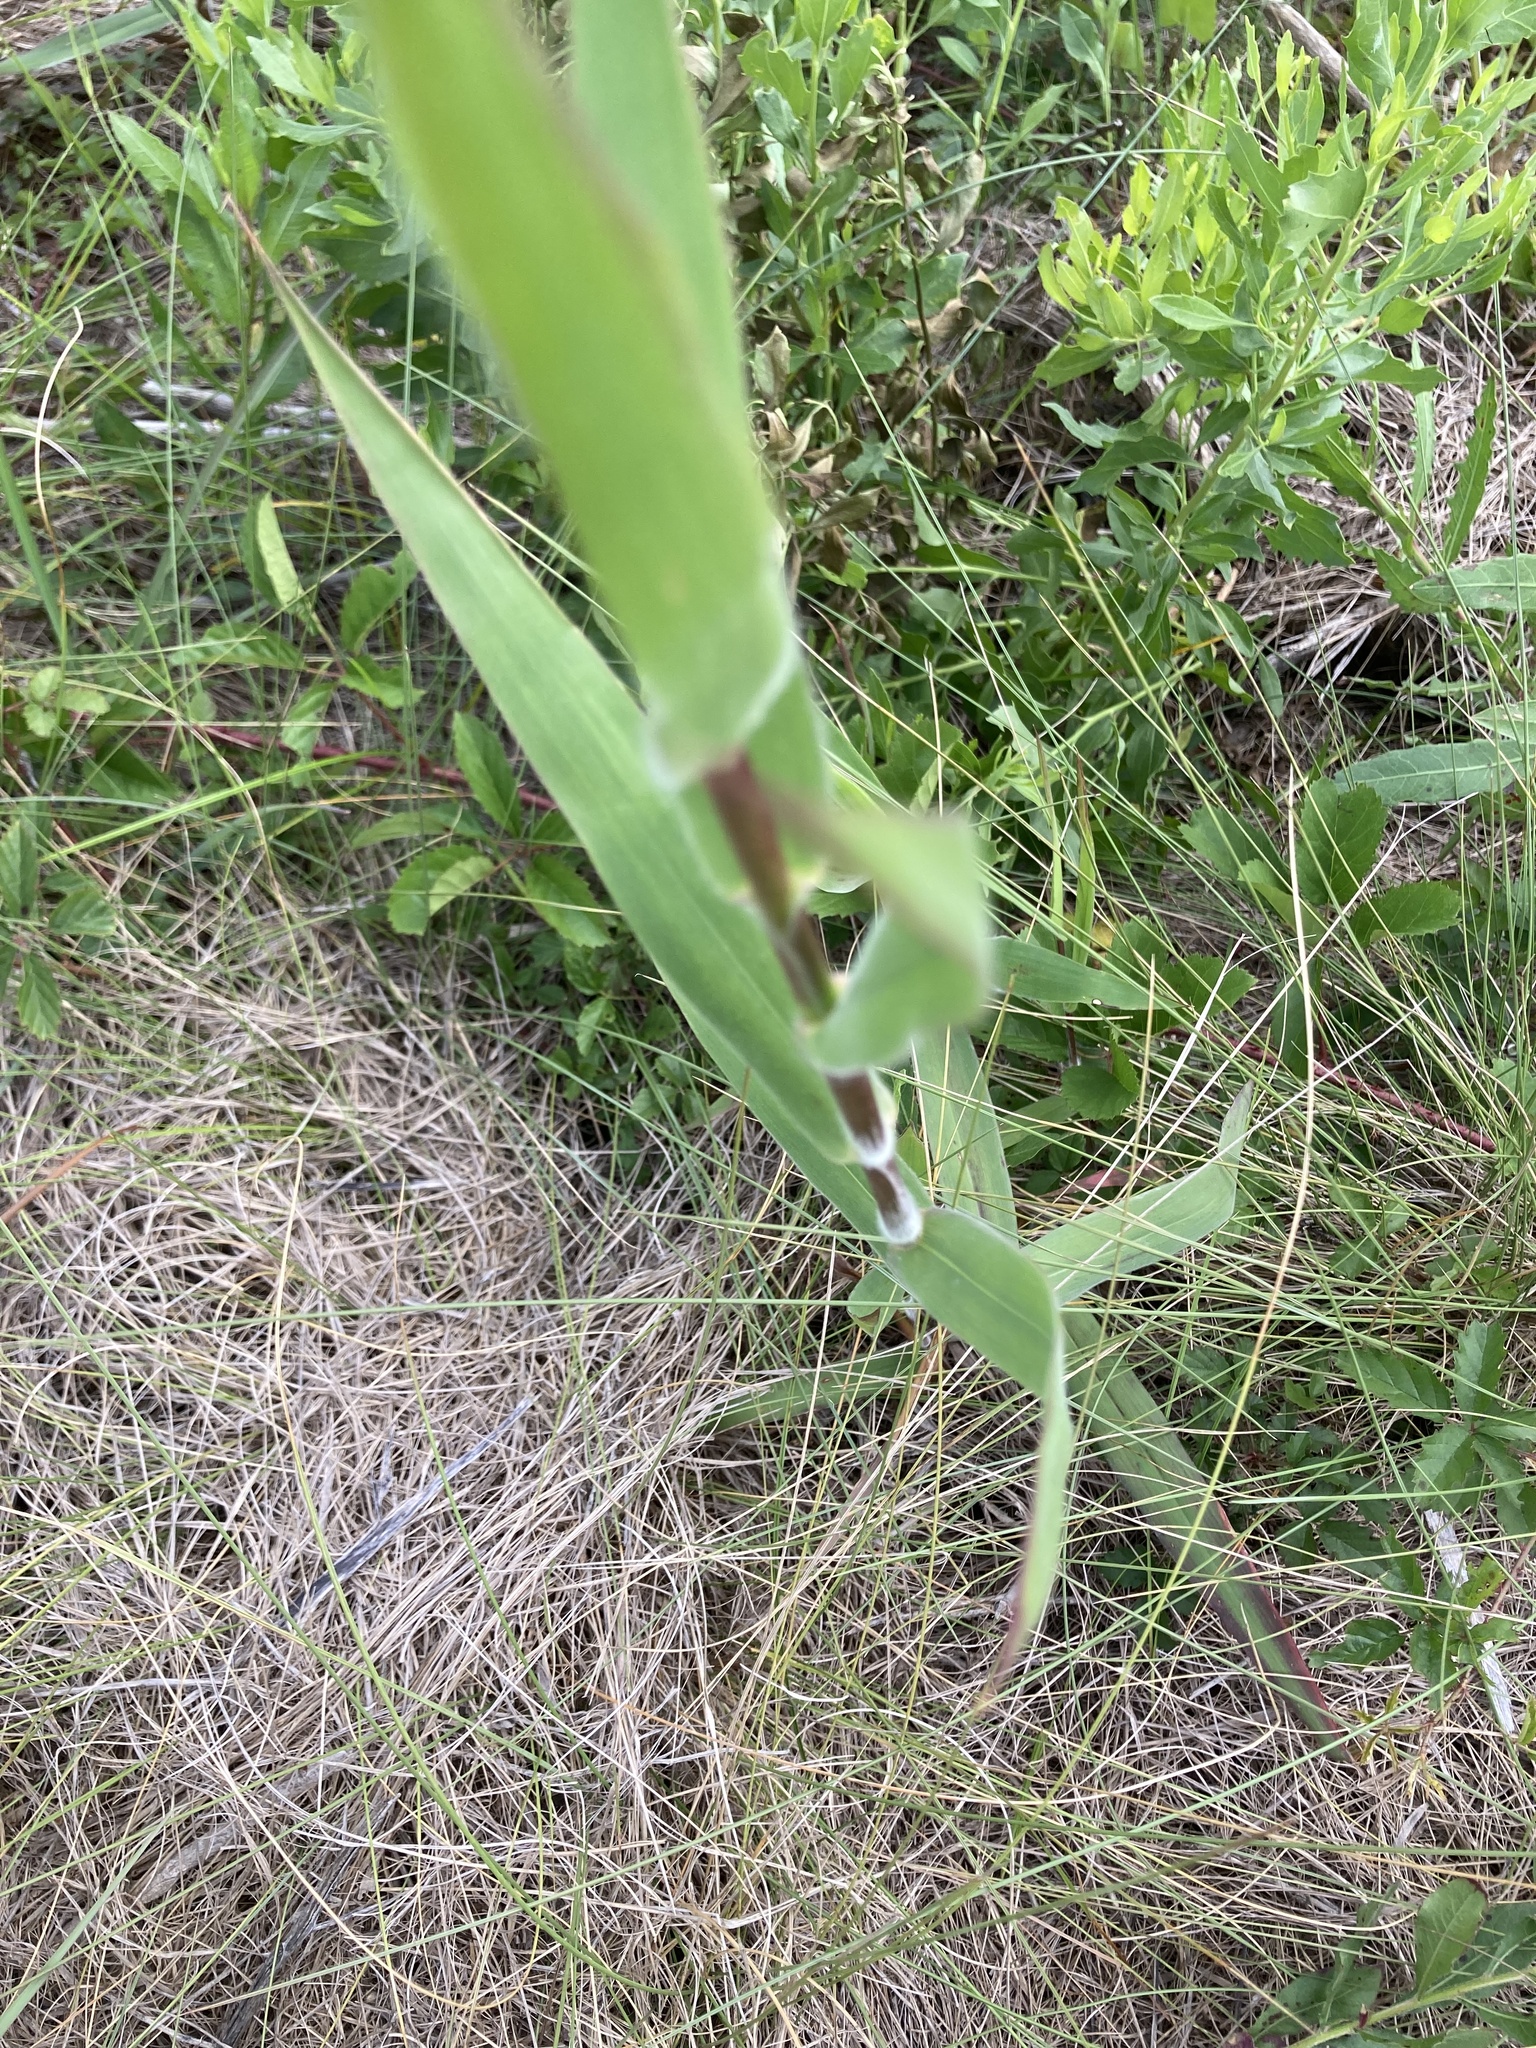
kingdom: Plantae
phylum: Tracheophyta
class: Liliopsida
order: Poales
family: Poaceae
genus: Dichanthelium
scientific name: Dichanthelium scoparium
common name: Velvety panic grass
